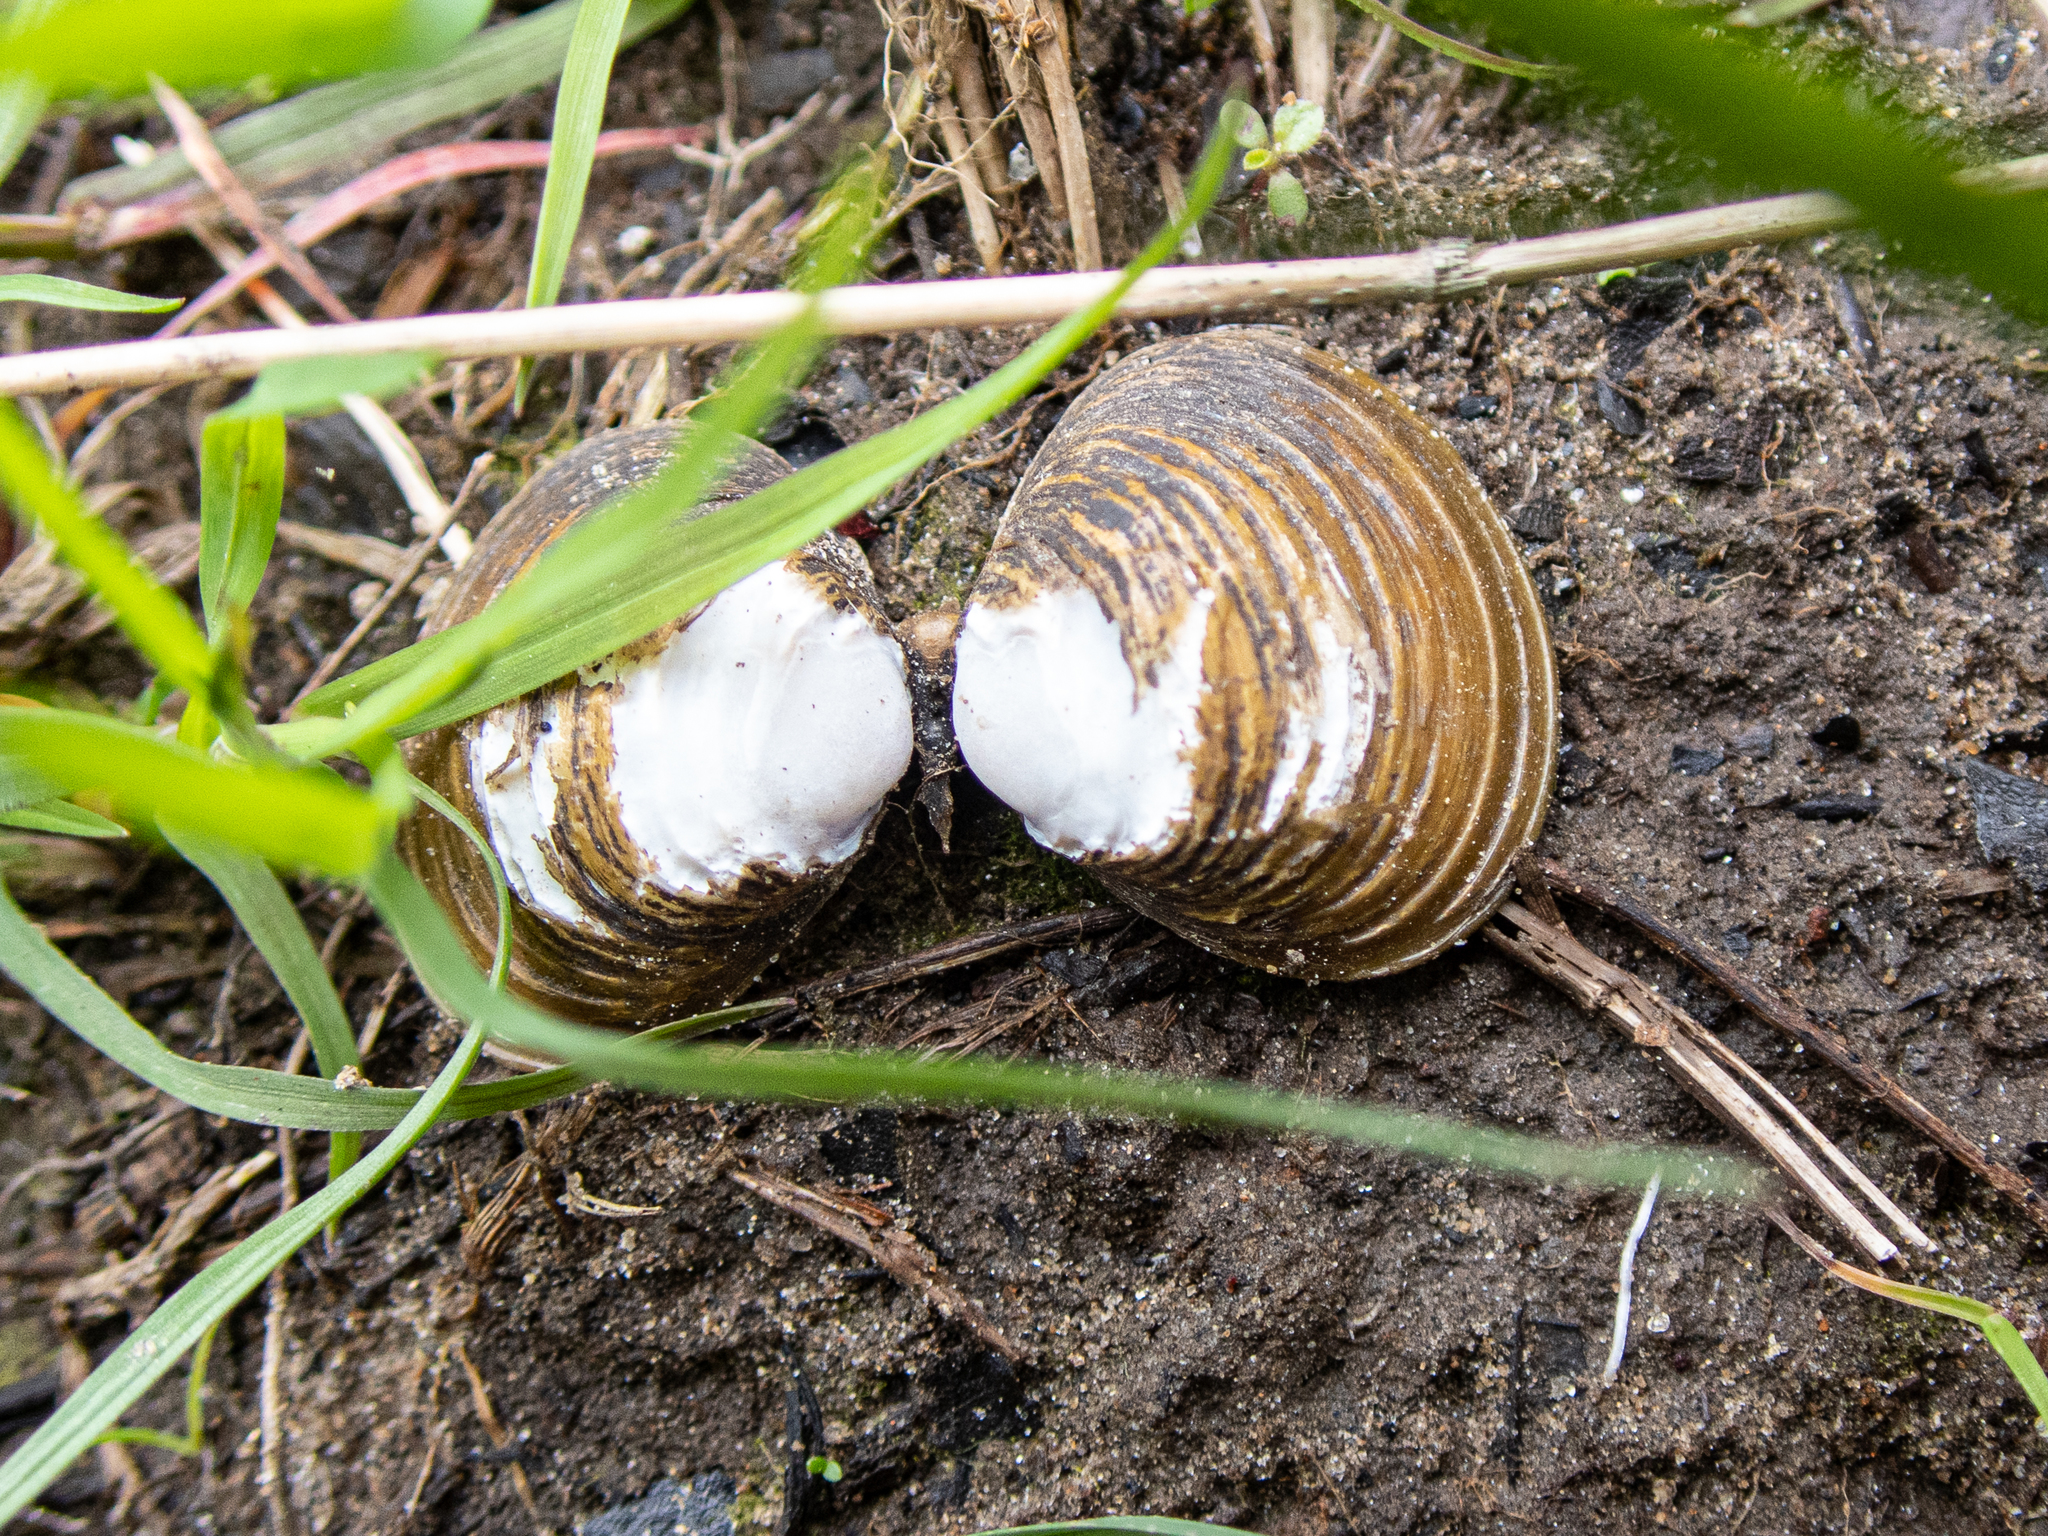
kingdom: Animalia
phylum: Mollusca
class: Bivalvia
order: Venerida
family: Cyrenidae
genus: Corbicula
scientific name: Corbicula fluminea
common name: Asian clam
